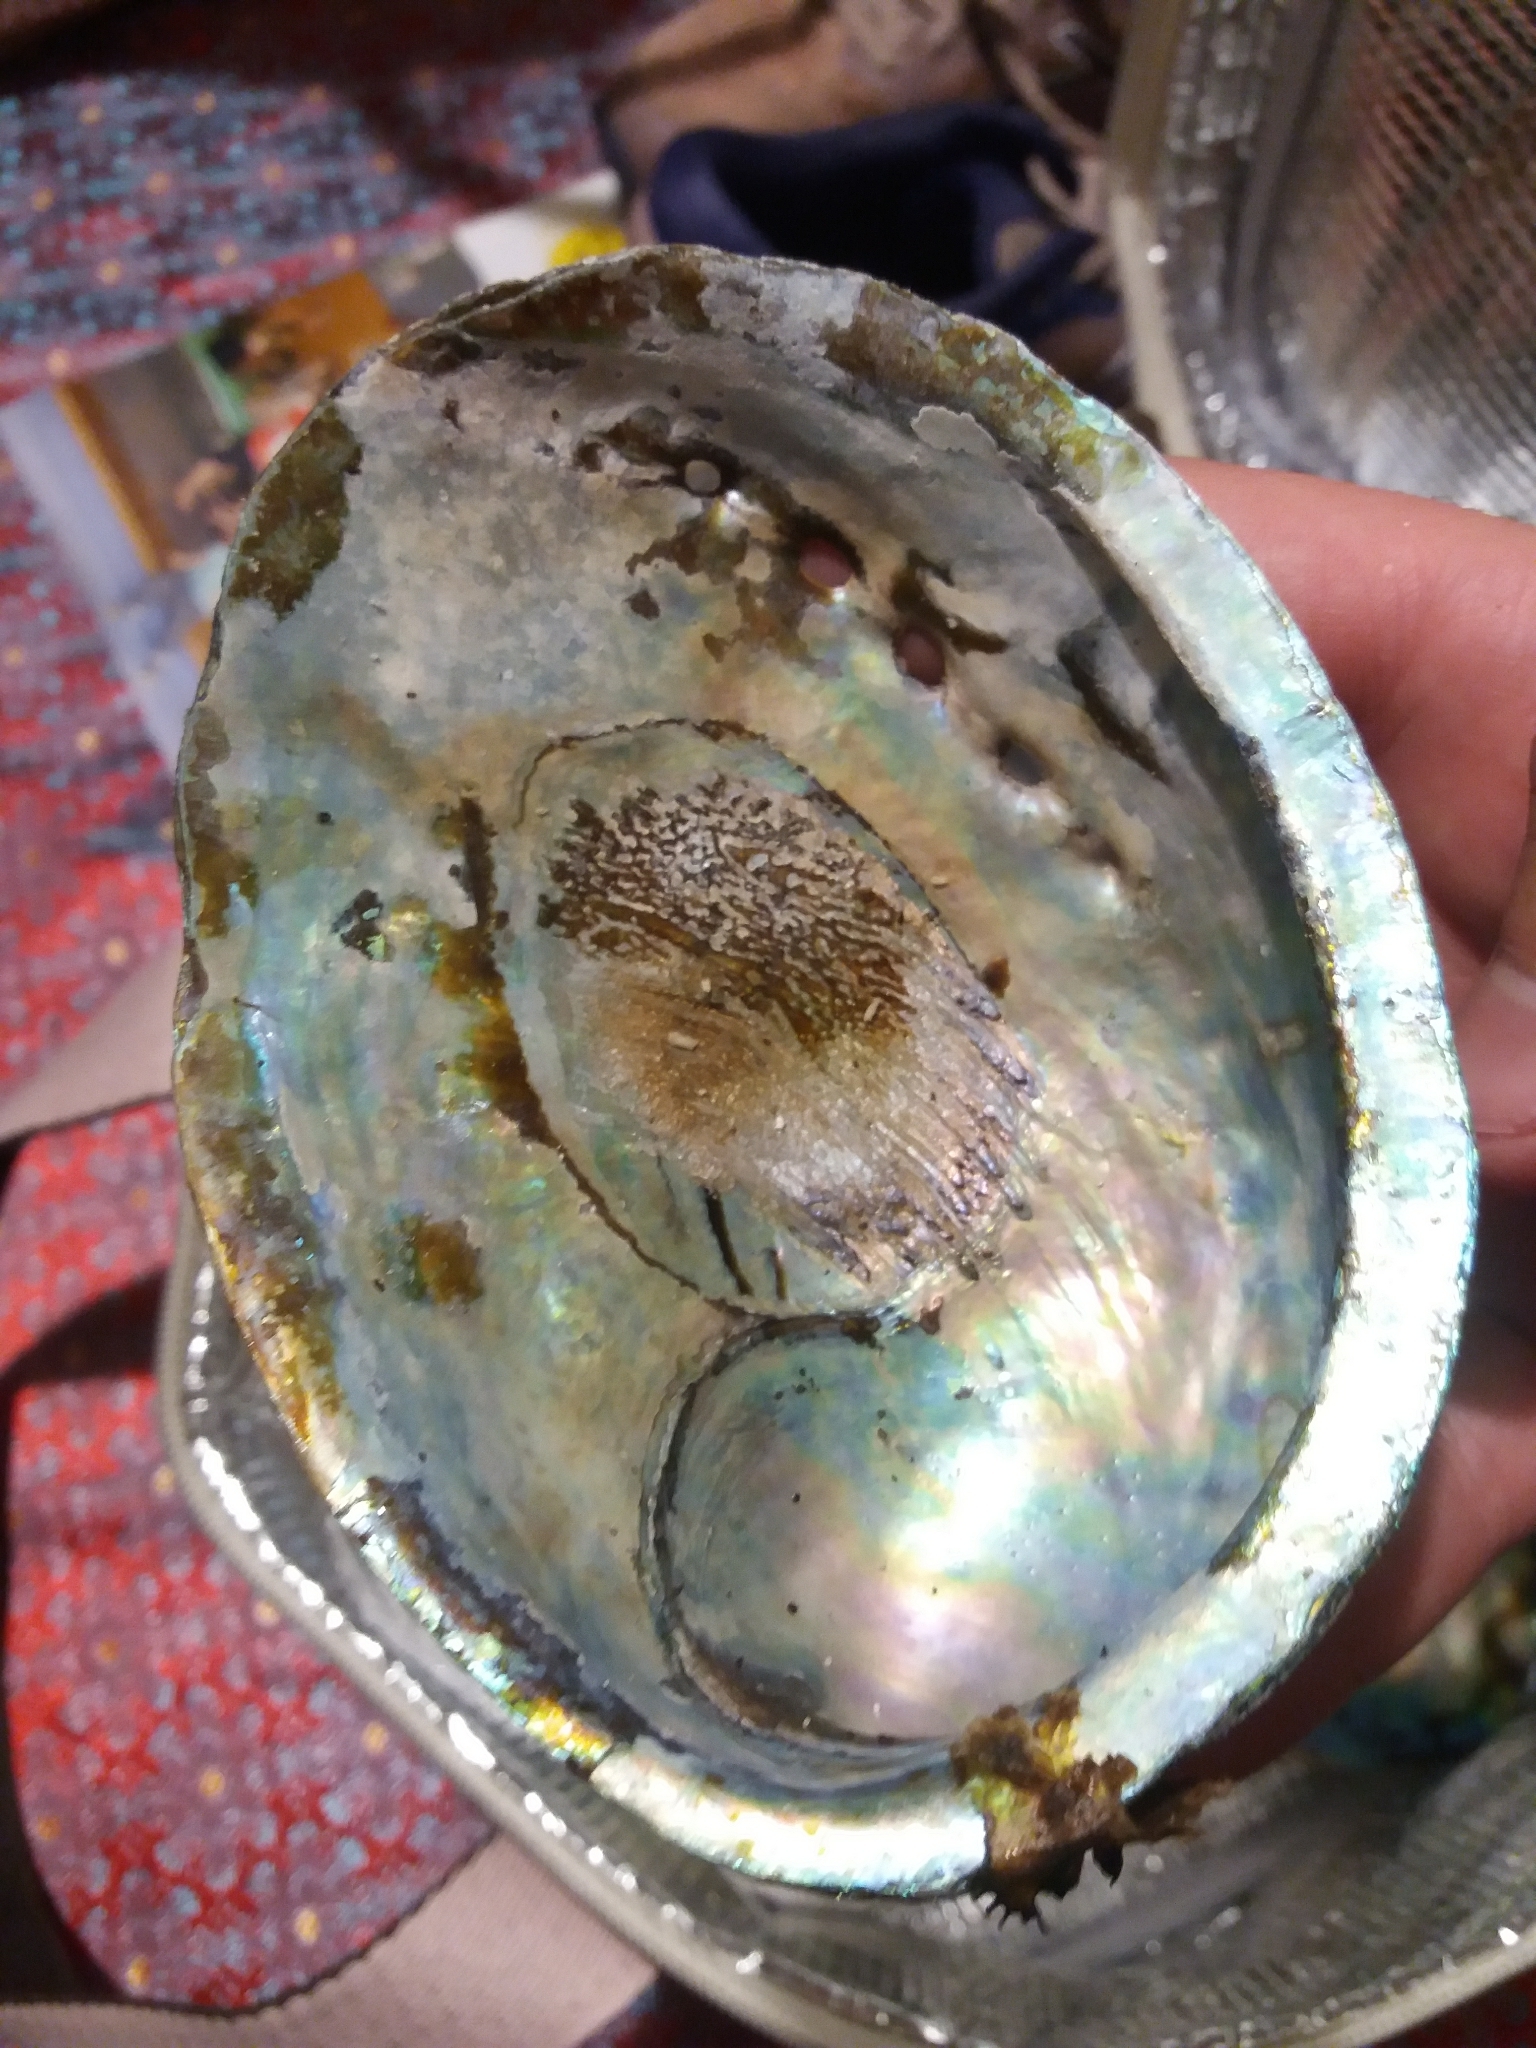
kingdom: Animalia
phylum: Mollusca
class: Gastropoda
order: Lepetellida
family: Haliotidae
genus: Haliotis
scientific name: Haliotis iris
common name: Abalone
